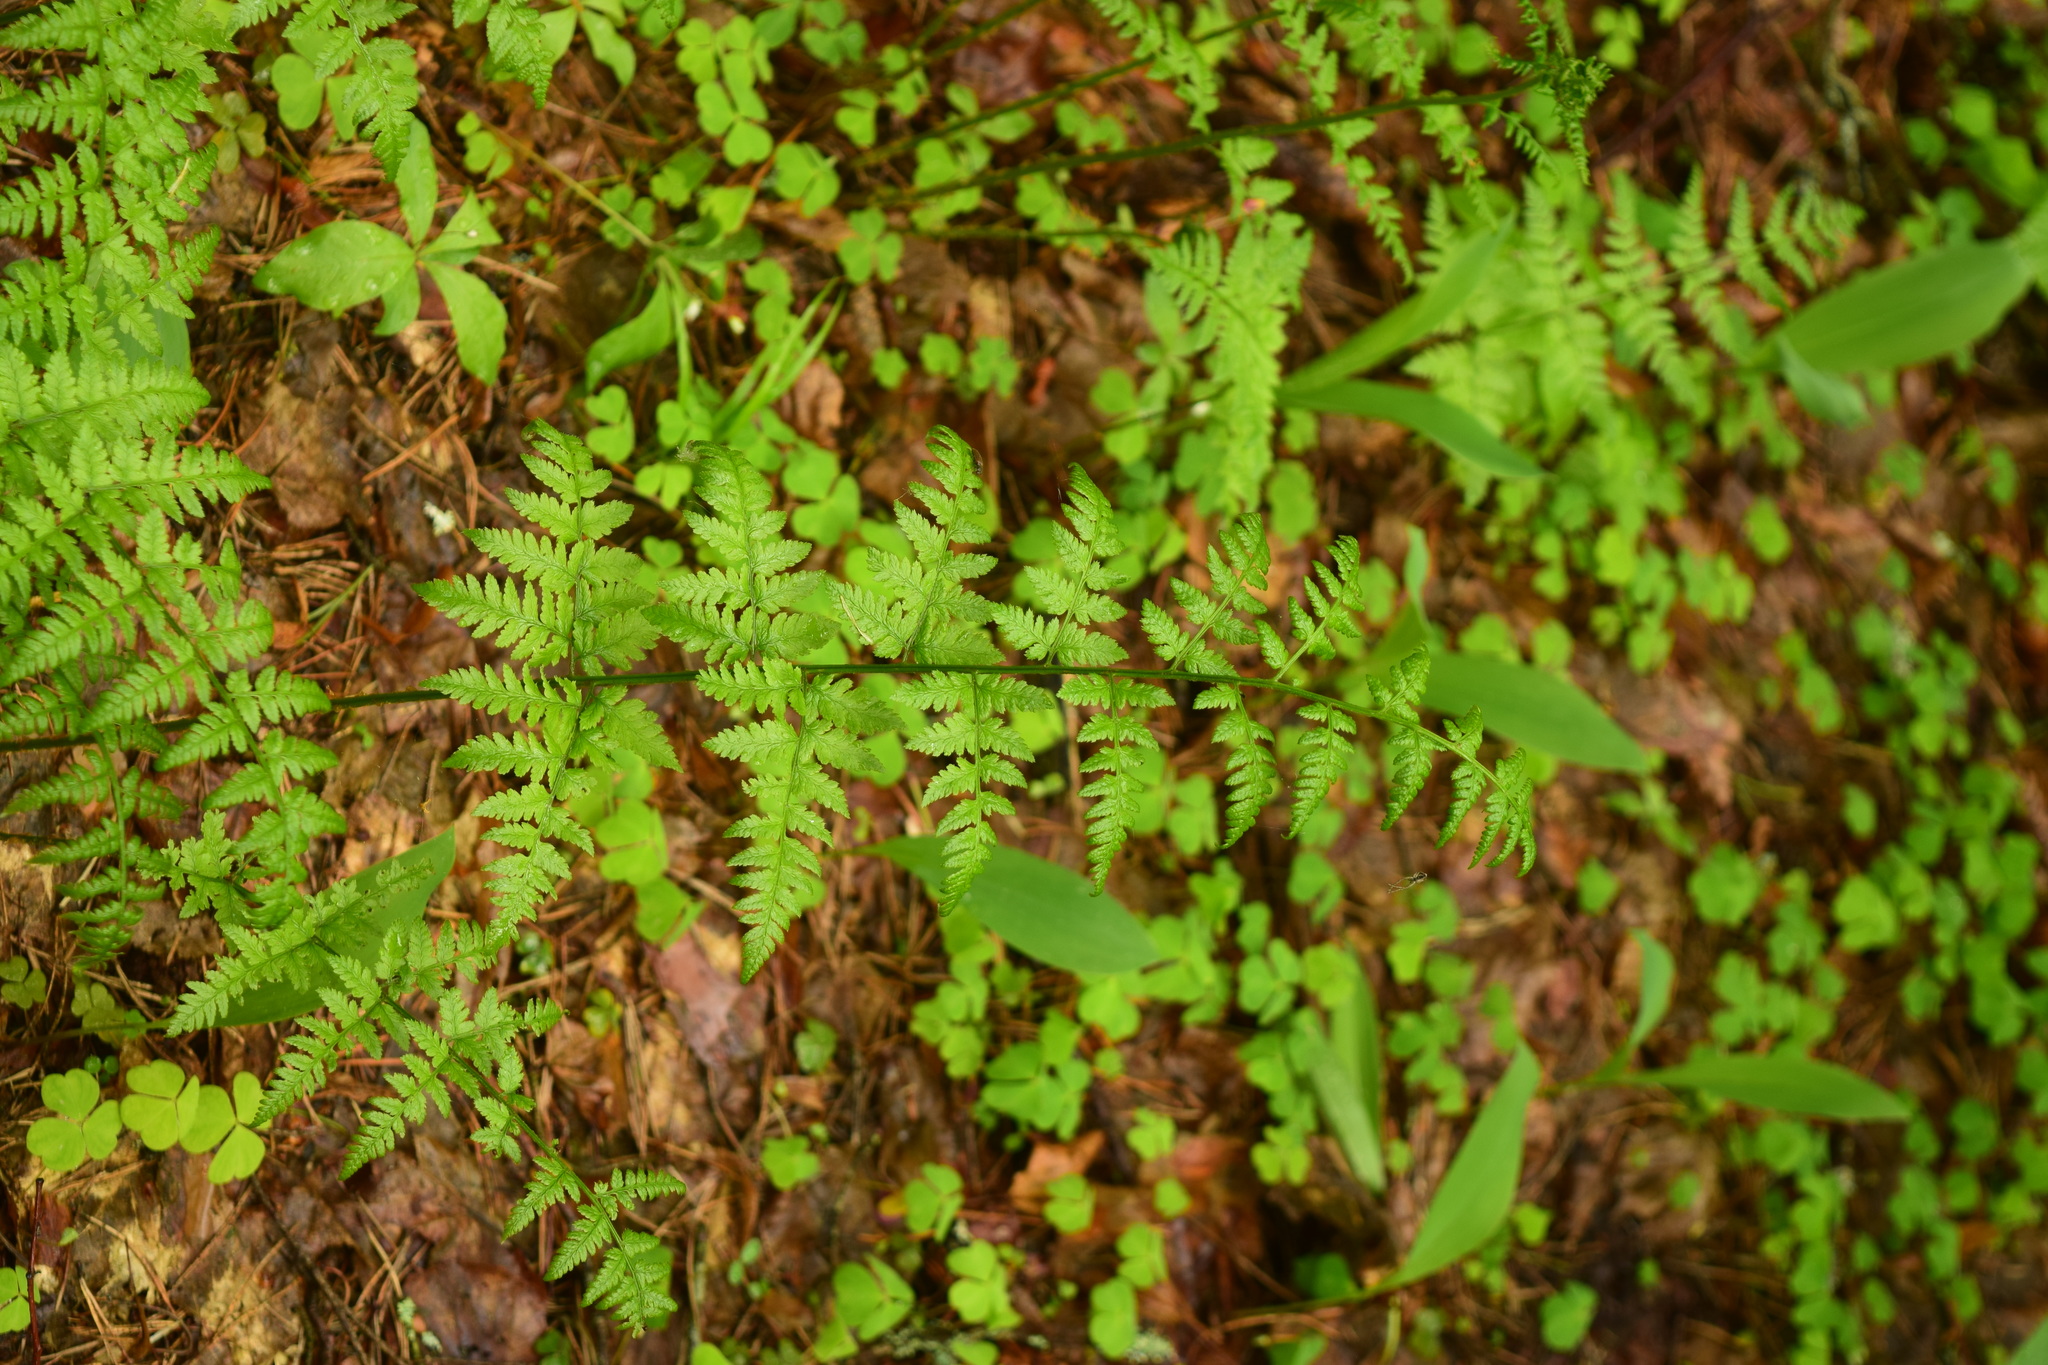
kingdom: Plantae
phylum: Tracheophyta
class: Polypodiopsida
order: Polypodiales
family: Dryopteridaceae
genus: Dryopteris
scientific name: Dryopteris carthusiana
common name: Narrow buckler-fern
